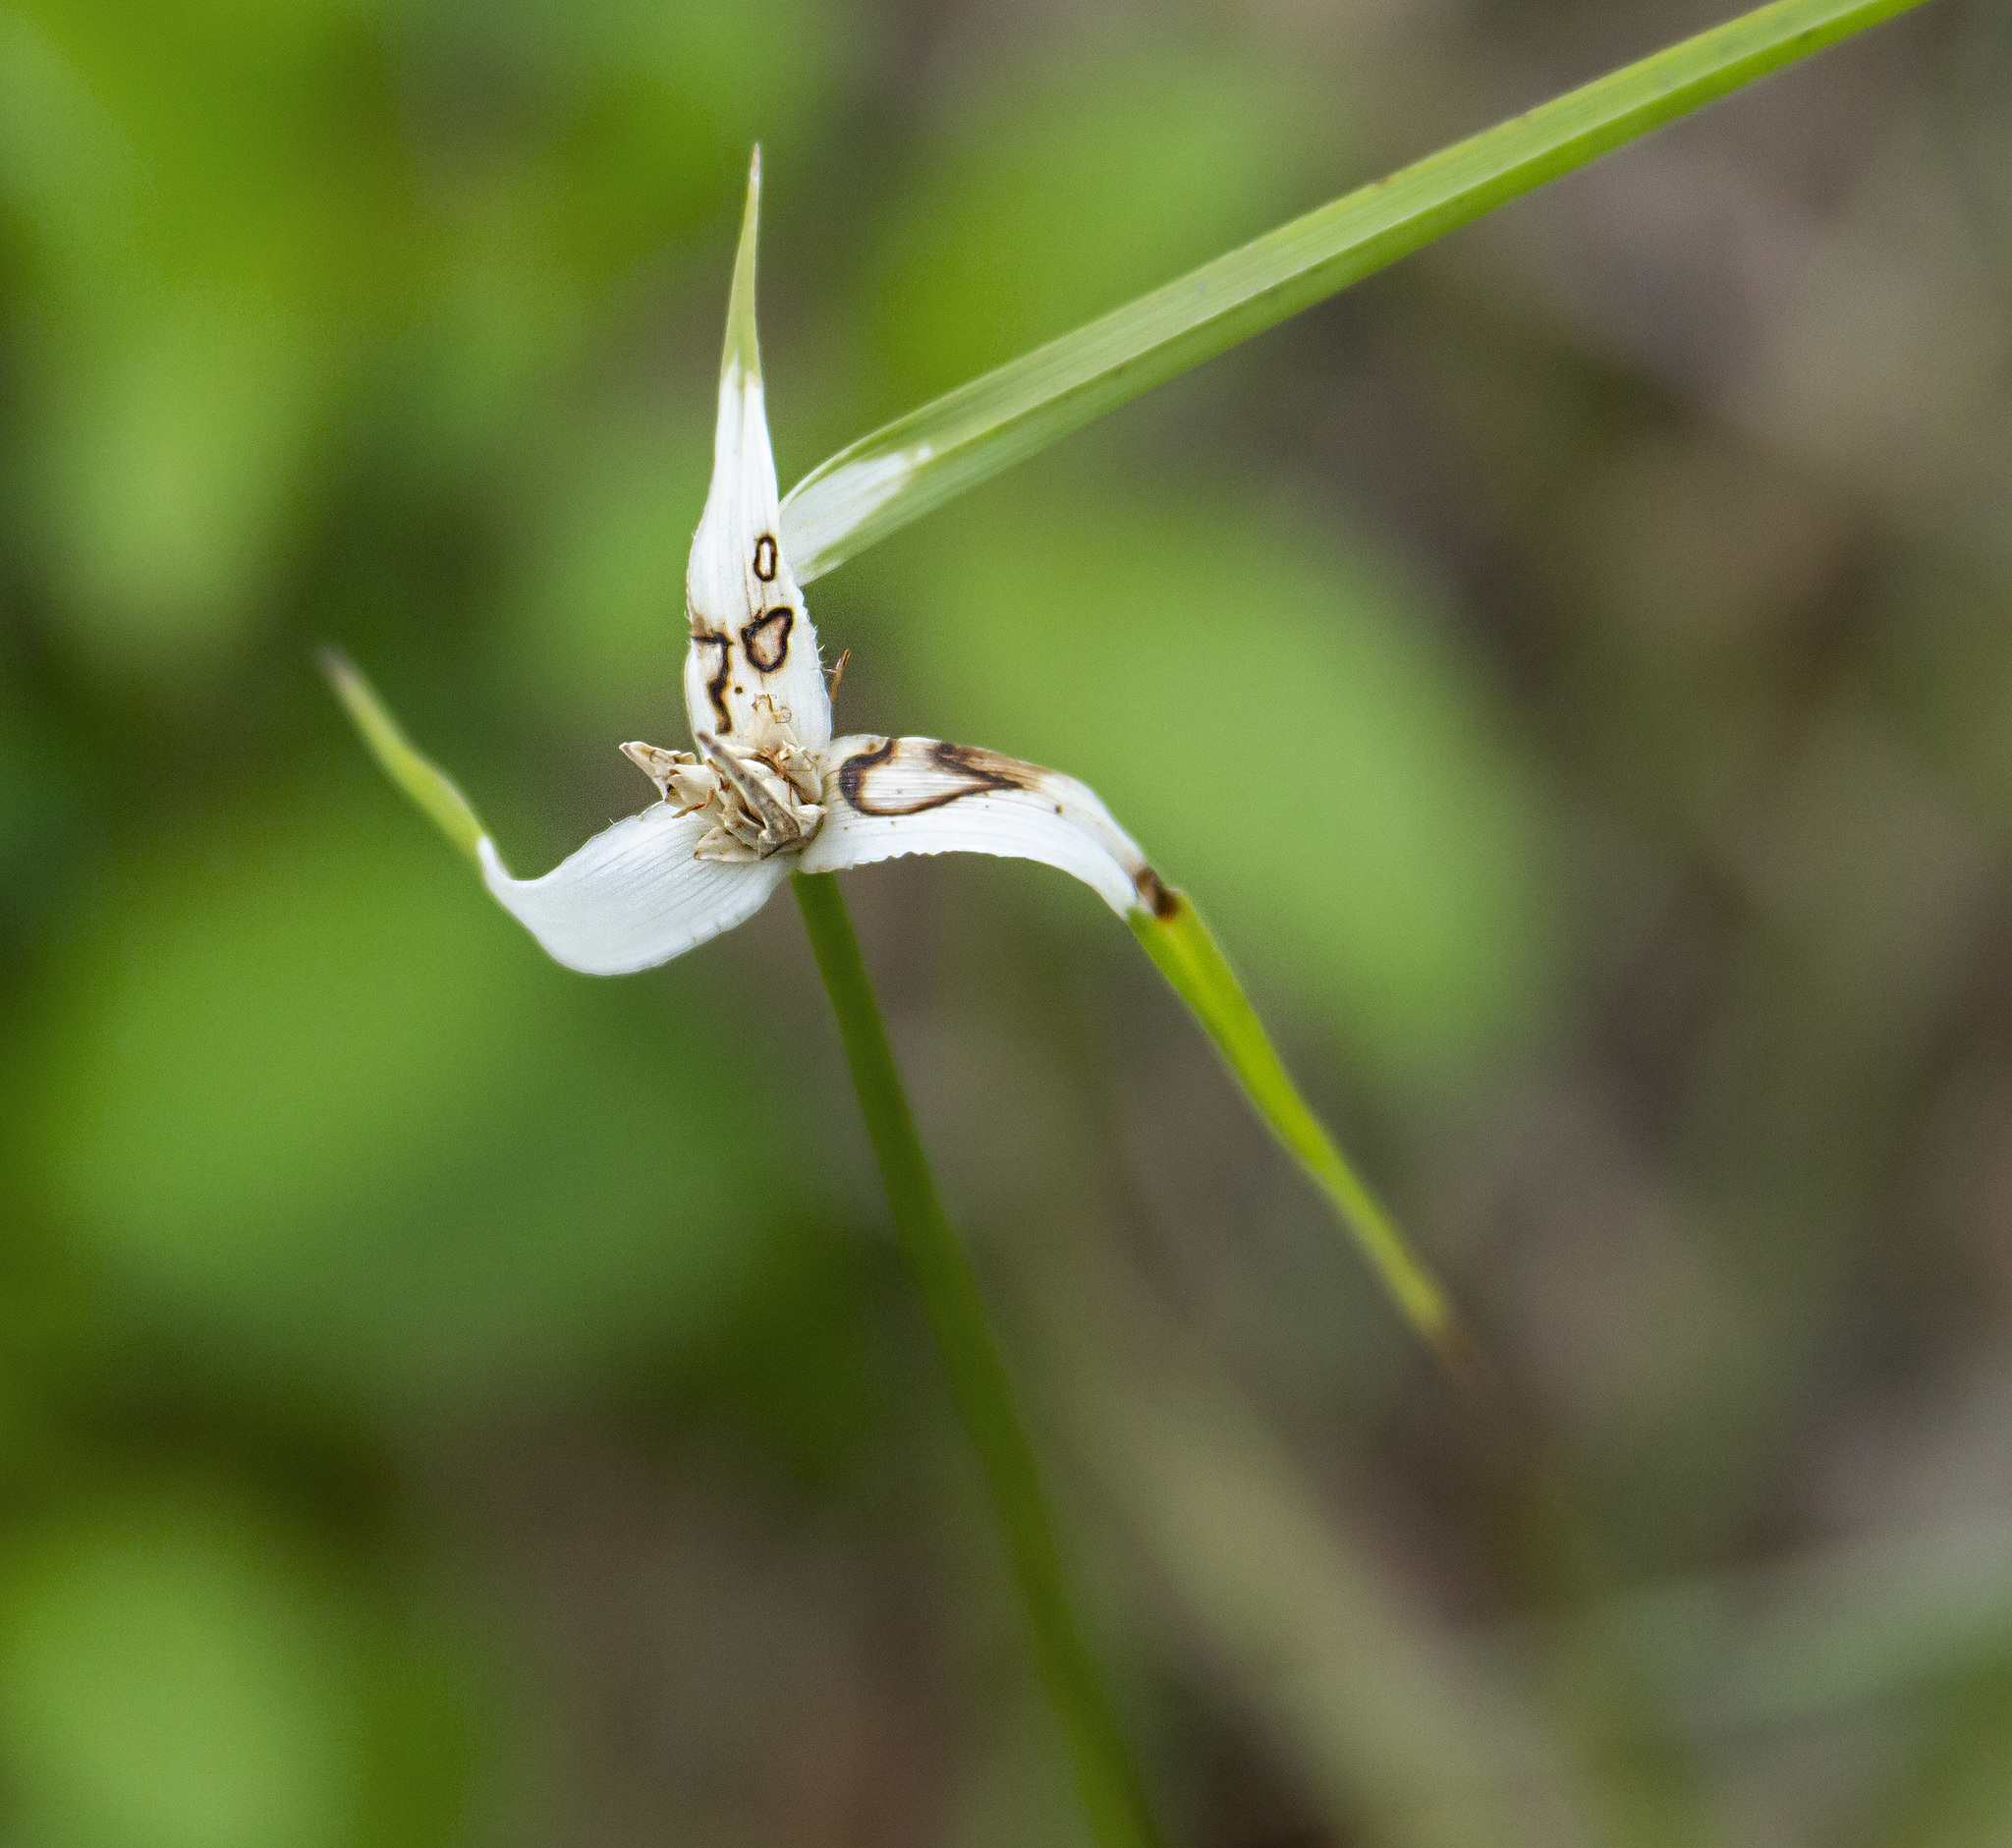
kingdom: Plantae
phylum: Tracheophyta
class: Liliopsida
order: Poales
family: Cyperaceae
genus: Rhynchospora
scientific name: Rhynchospora colorata
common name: Star sedge
